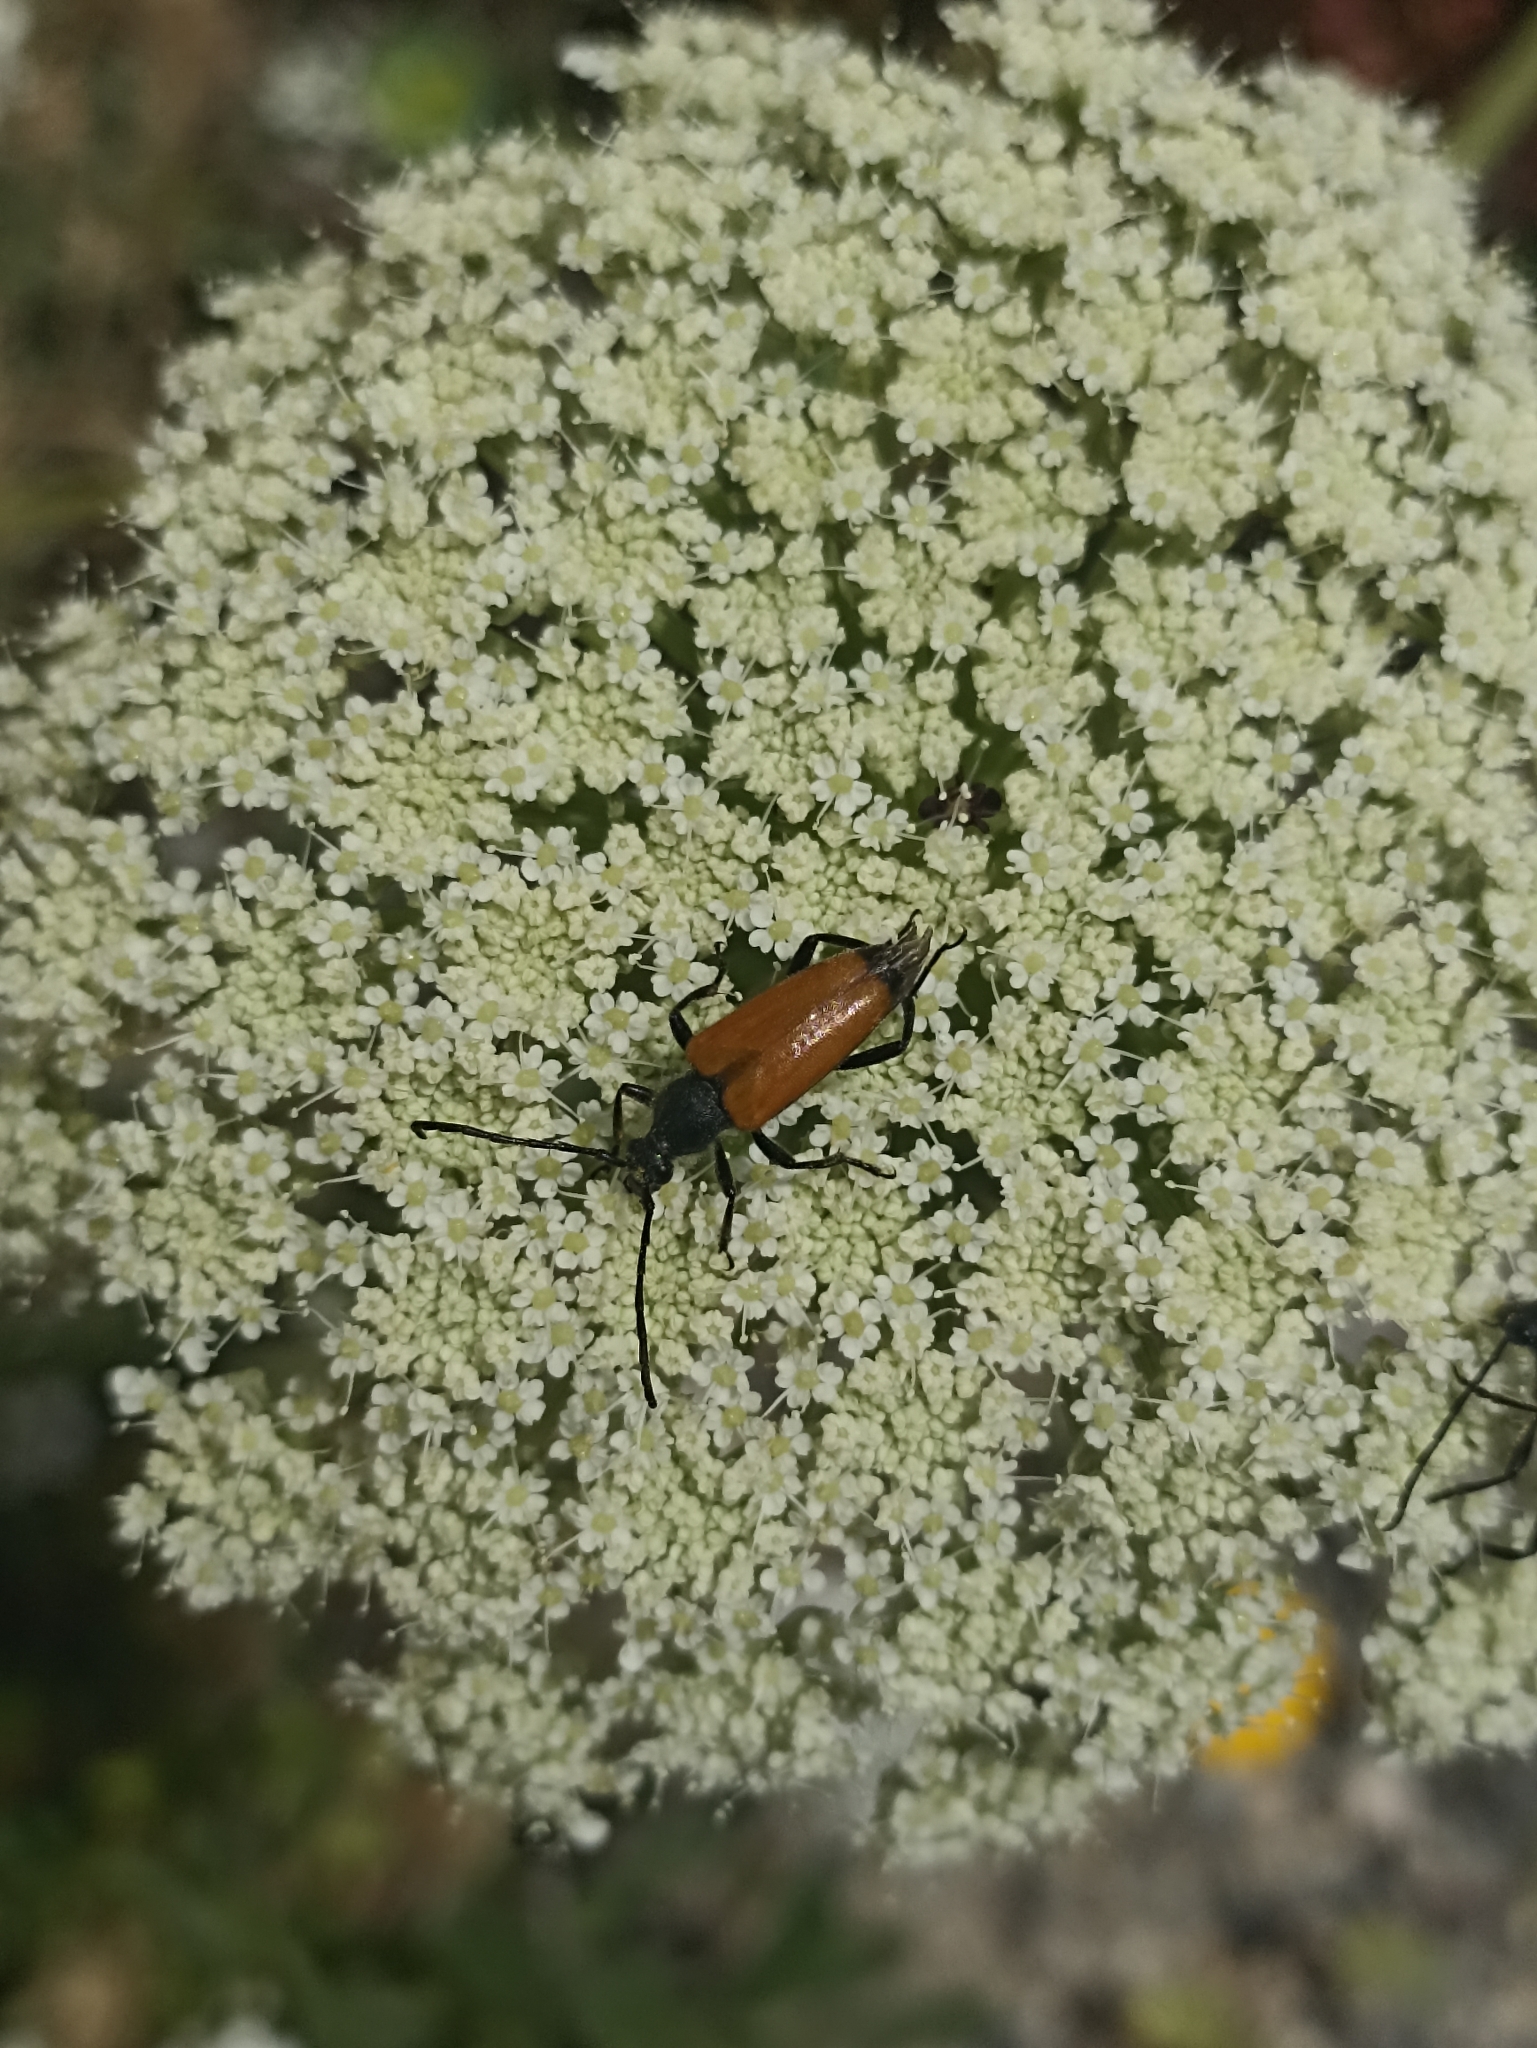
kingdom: Animalia
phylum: Arthropoda
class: Insecta
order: Coleoptera
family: Cerambycidae
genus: Paracorymbia
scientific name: Paracorymbia fulva
